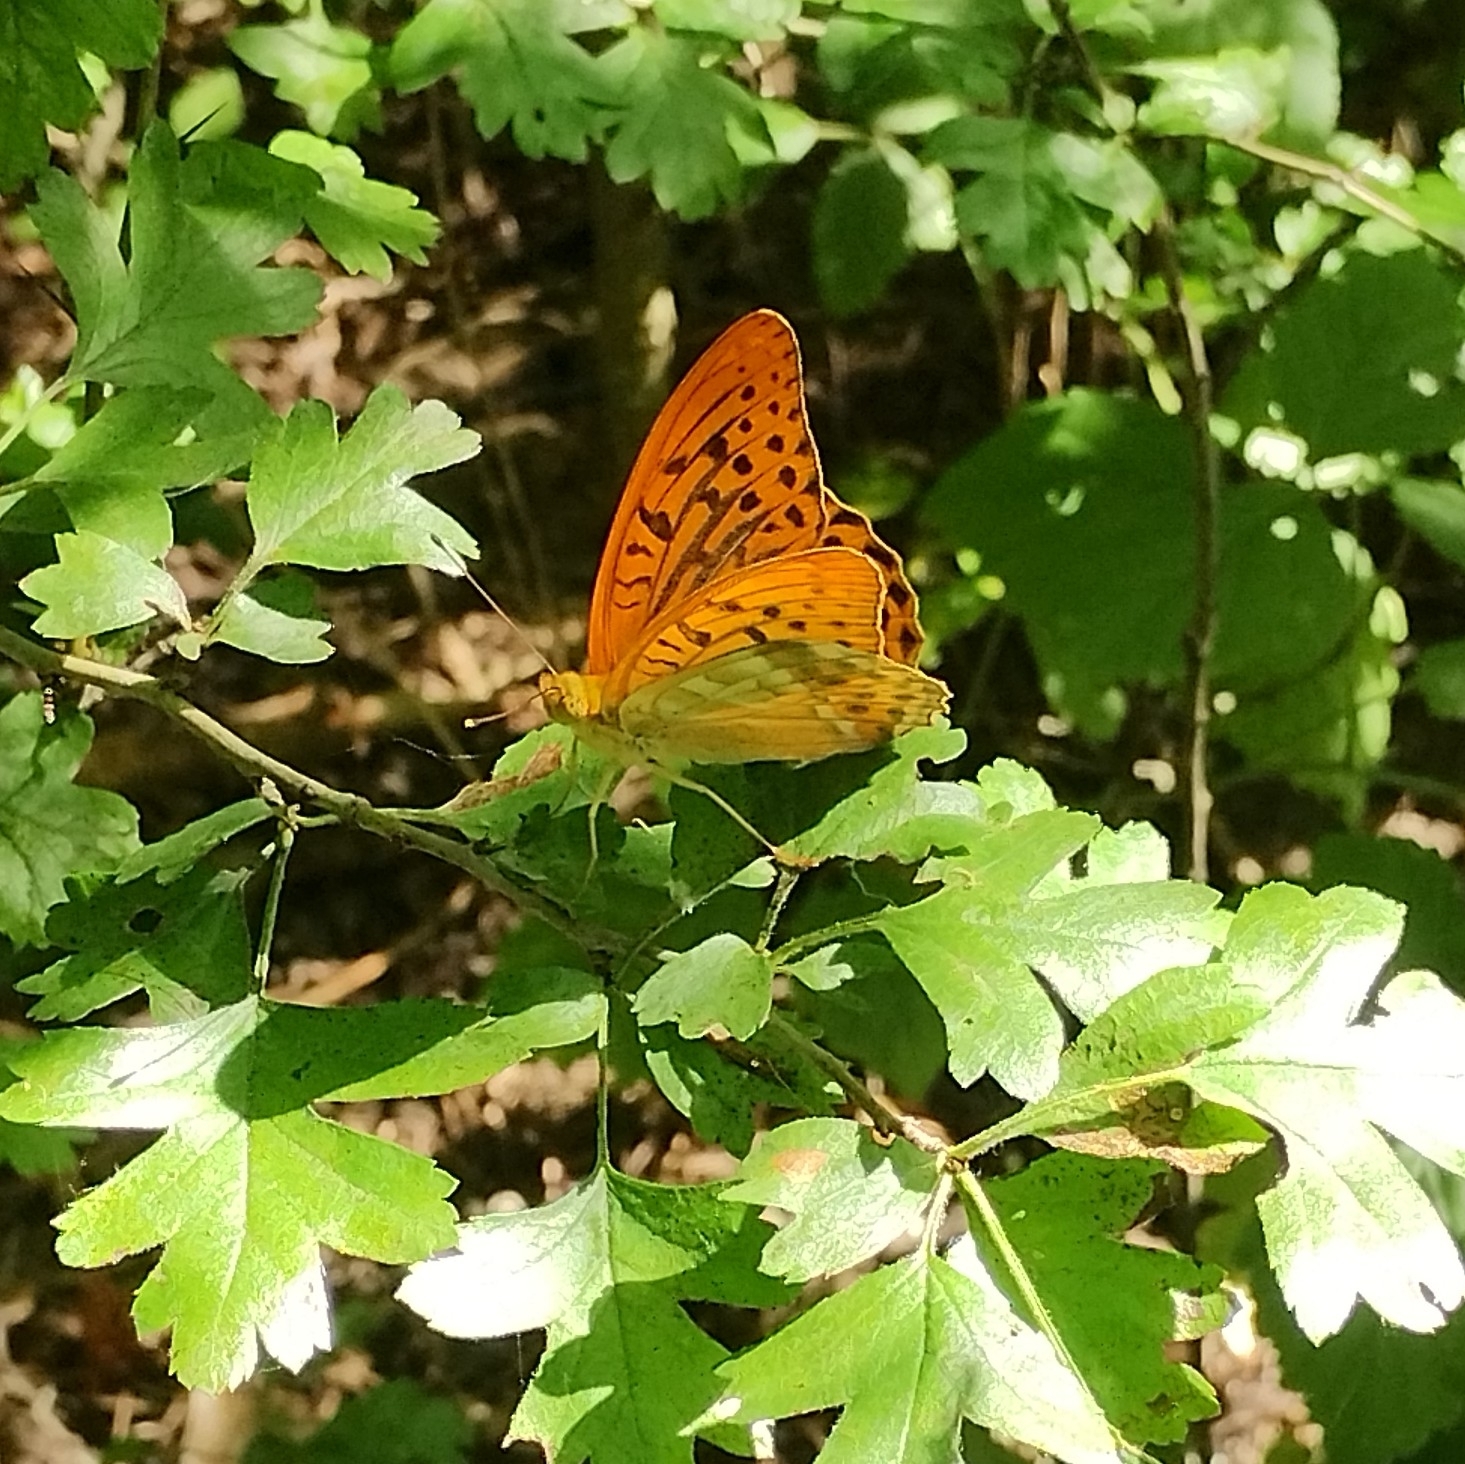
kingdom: Animalia
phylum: Arthropoda
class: Insecta
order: Lepidoptera
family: Nymphalidae
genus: Argynnis
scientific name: Argynnis paphia
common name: Silver-washed fritillary
